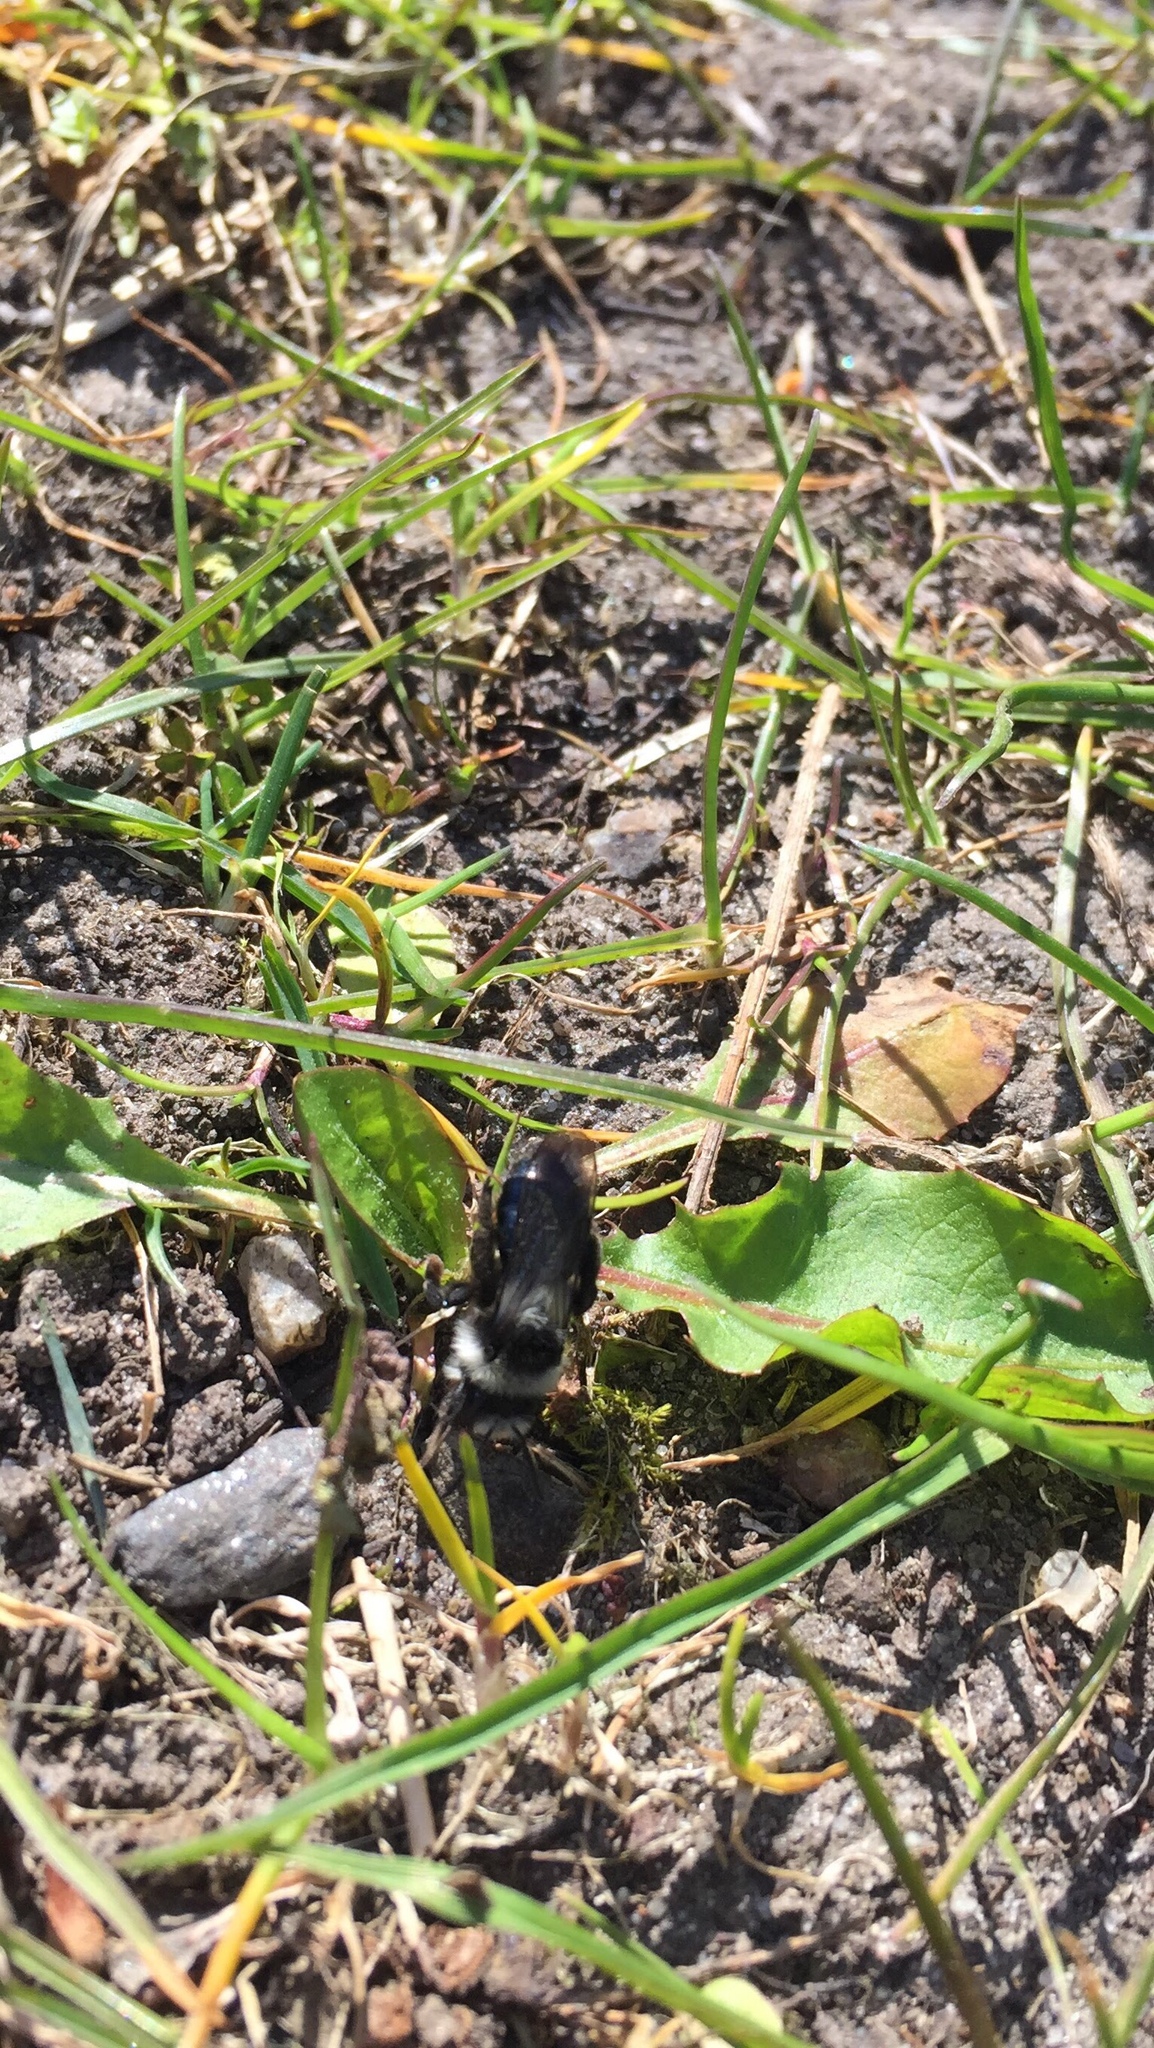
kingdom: Animalia
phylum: Arthropoda
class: Insecta
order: Hymenoptera
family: Andrenidae
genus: Andrena
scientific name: Andrena cineraria
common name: Ashy mining bee
